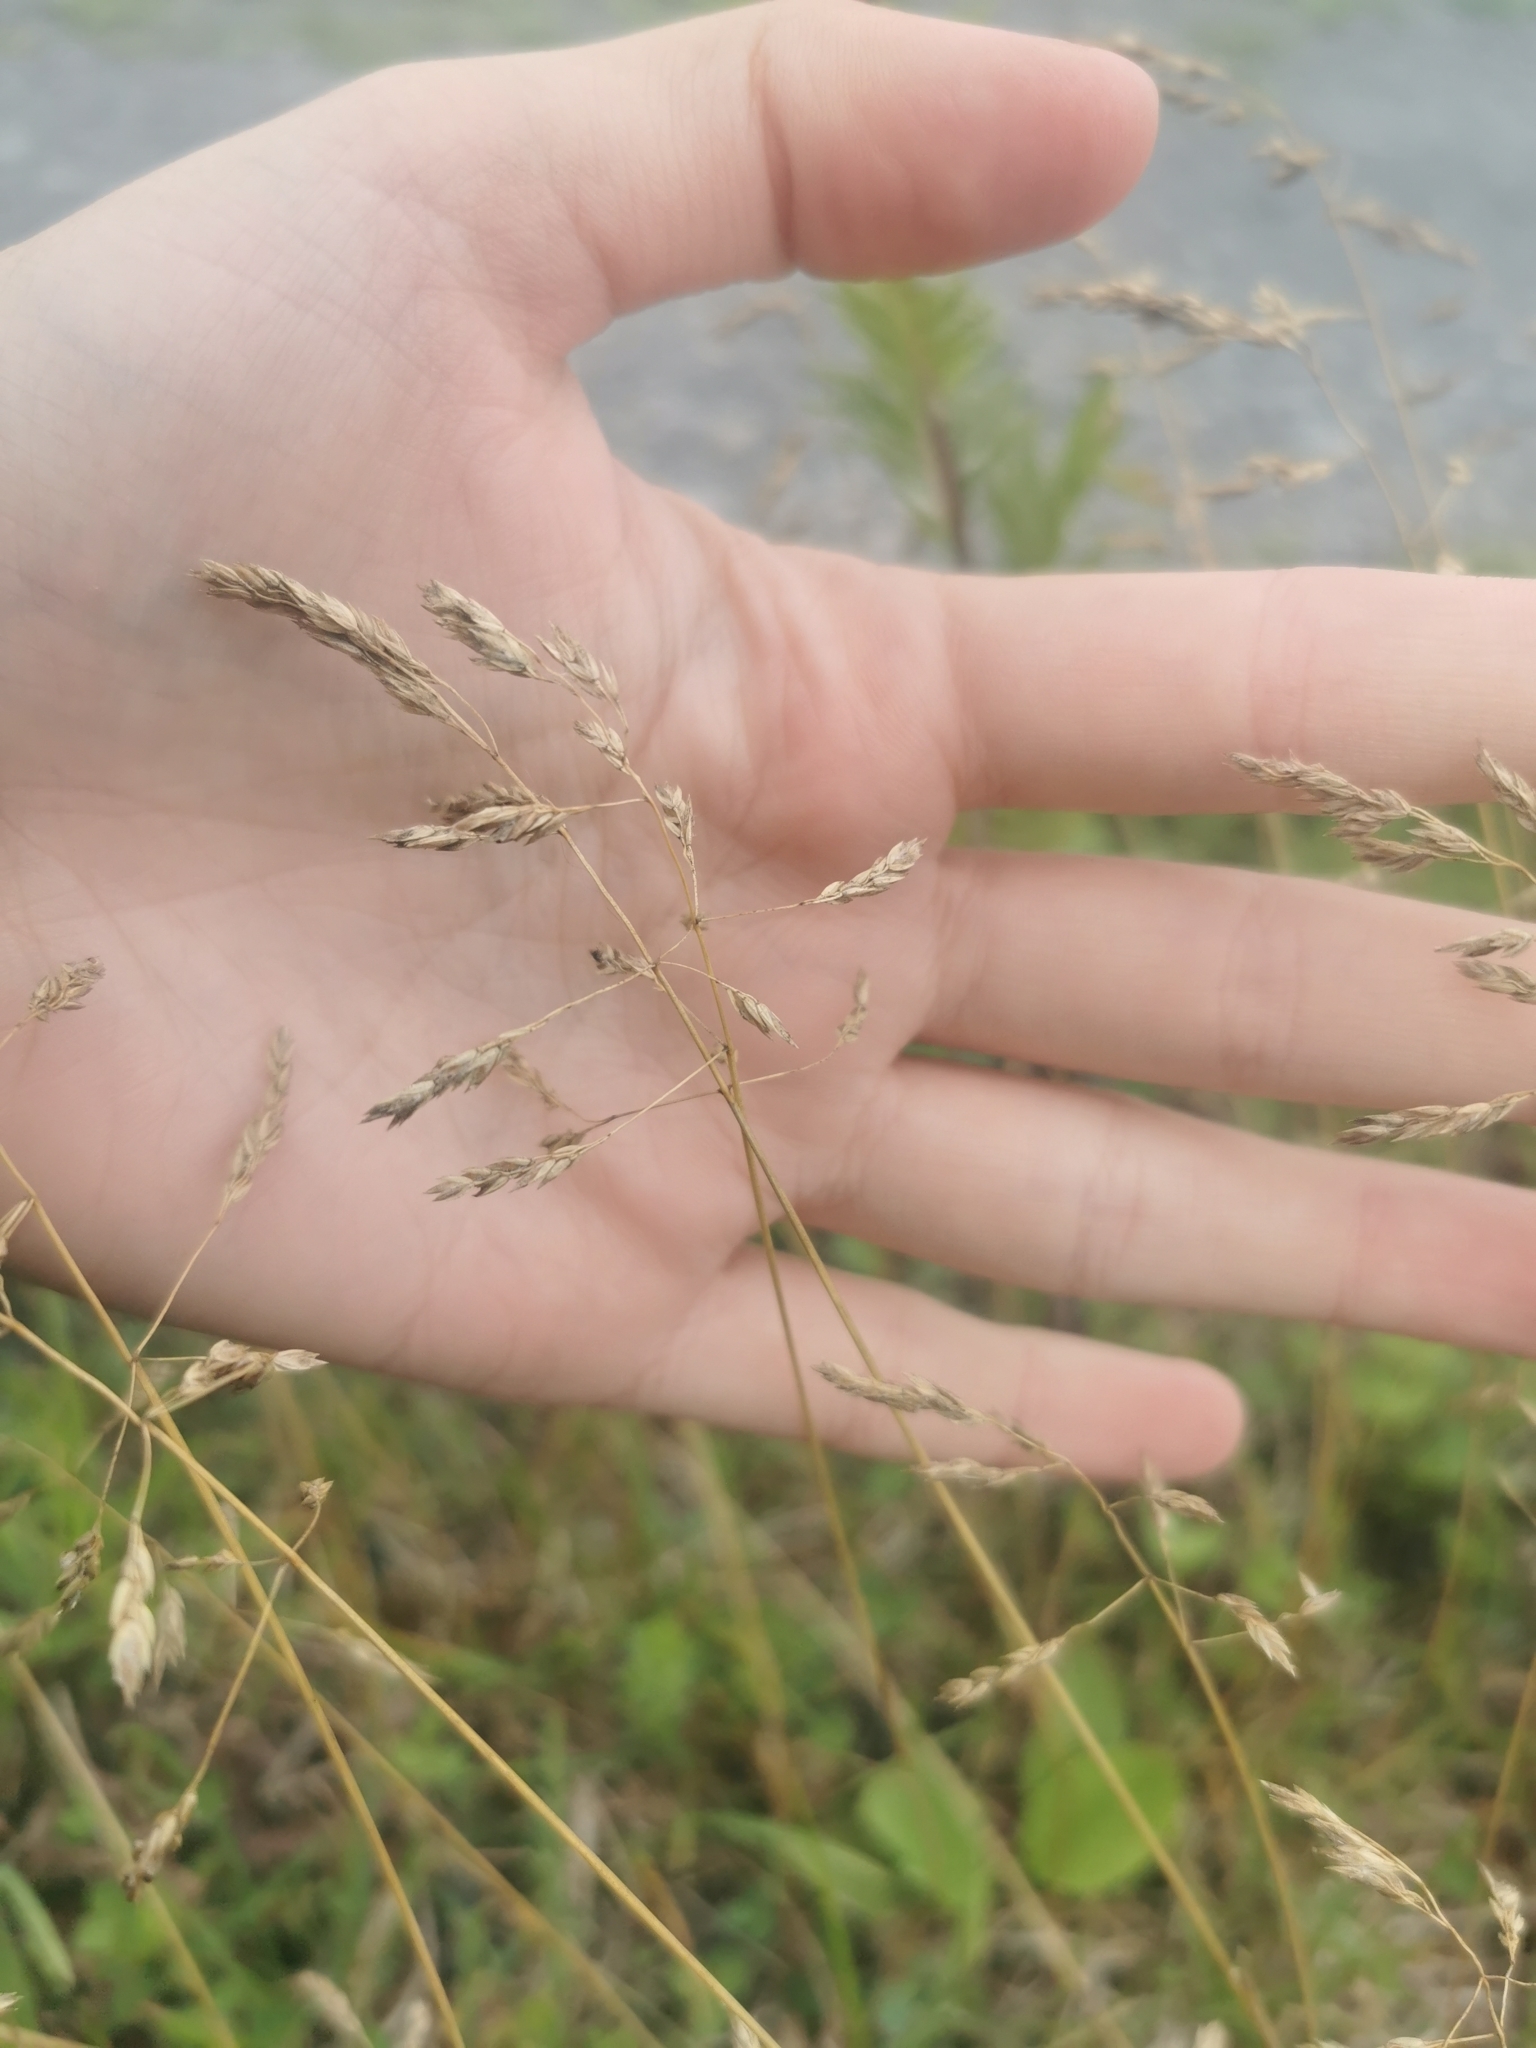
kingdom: Plantae
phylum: Tracheophyta
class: Liliopsida
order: Poales
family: Poaceae
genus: Poa
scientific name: Poa pratensis
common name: Kentucky bluegrass
